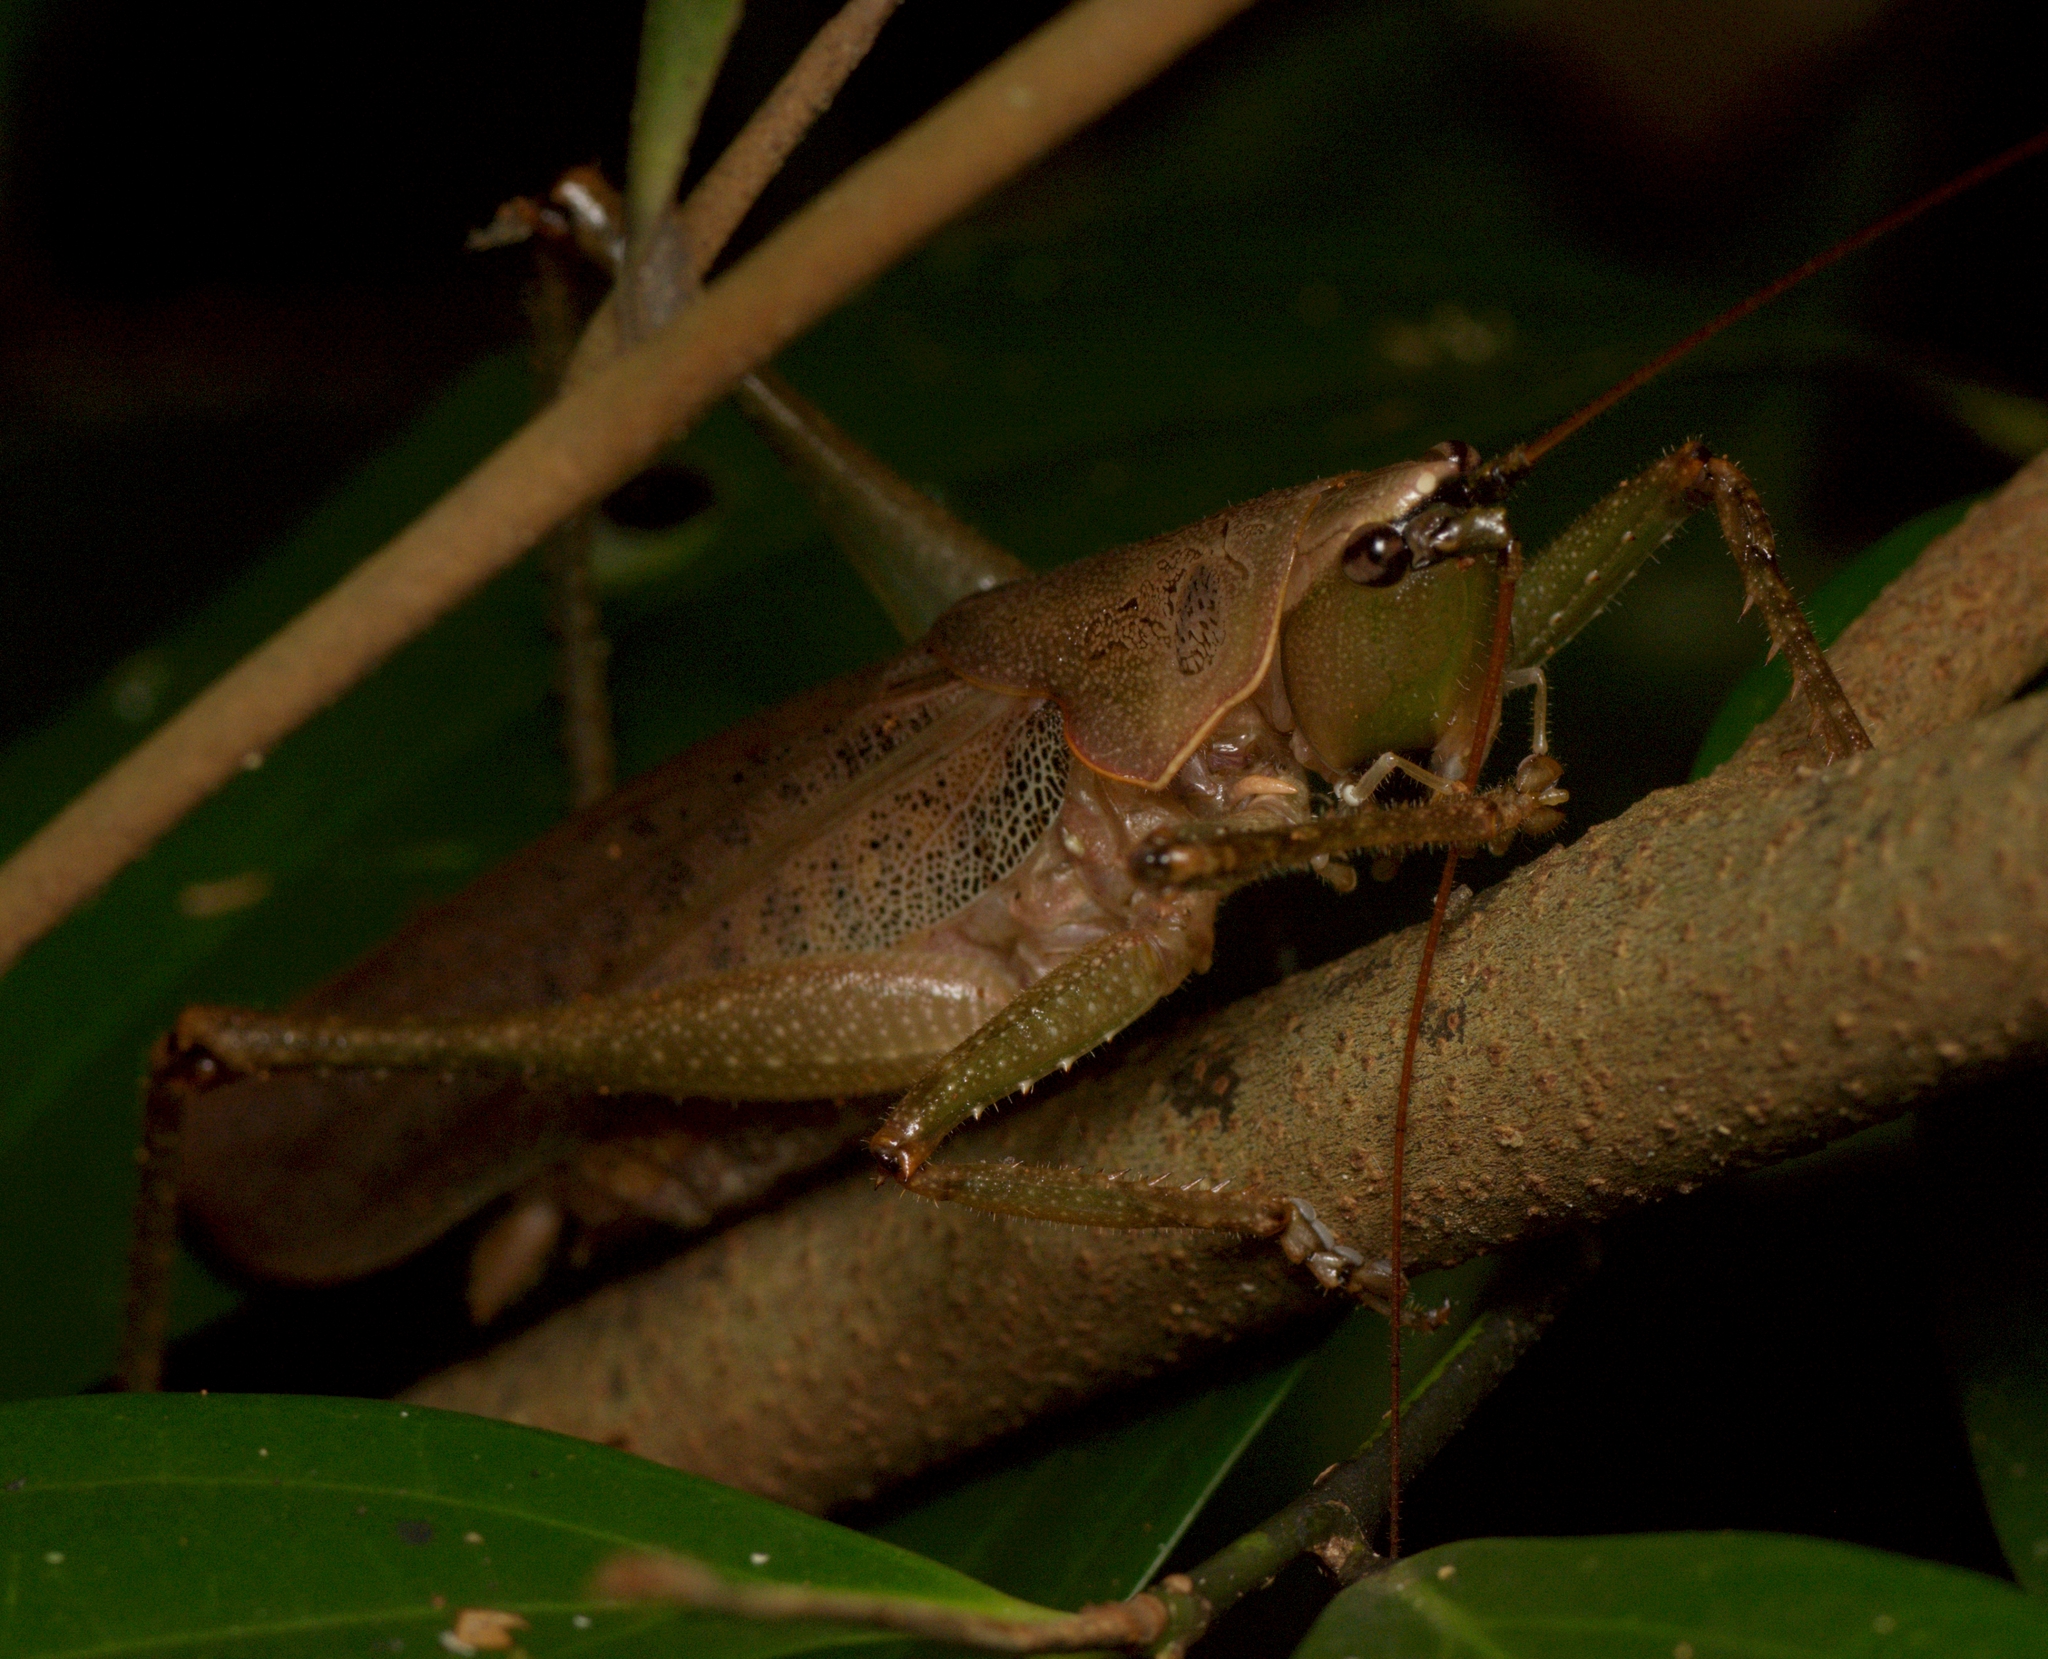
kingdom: Animalia
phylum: Arthropoda
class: Insecta
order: Orthoptera
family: Tettigoniidae
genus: Austrosalomona
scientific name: Austrosalomona falcata
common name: Olive-green coastal katydid
